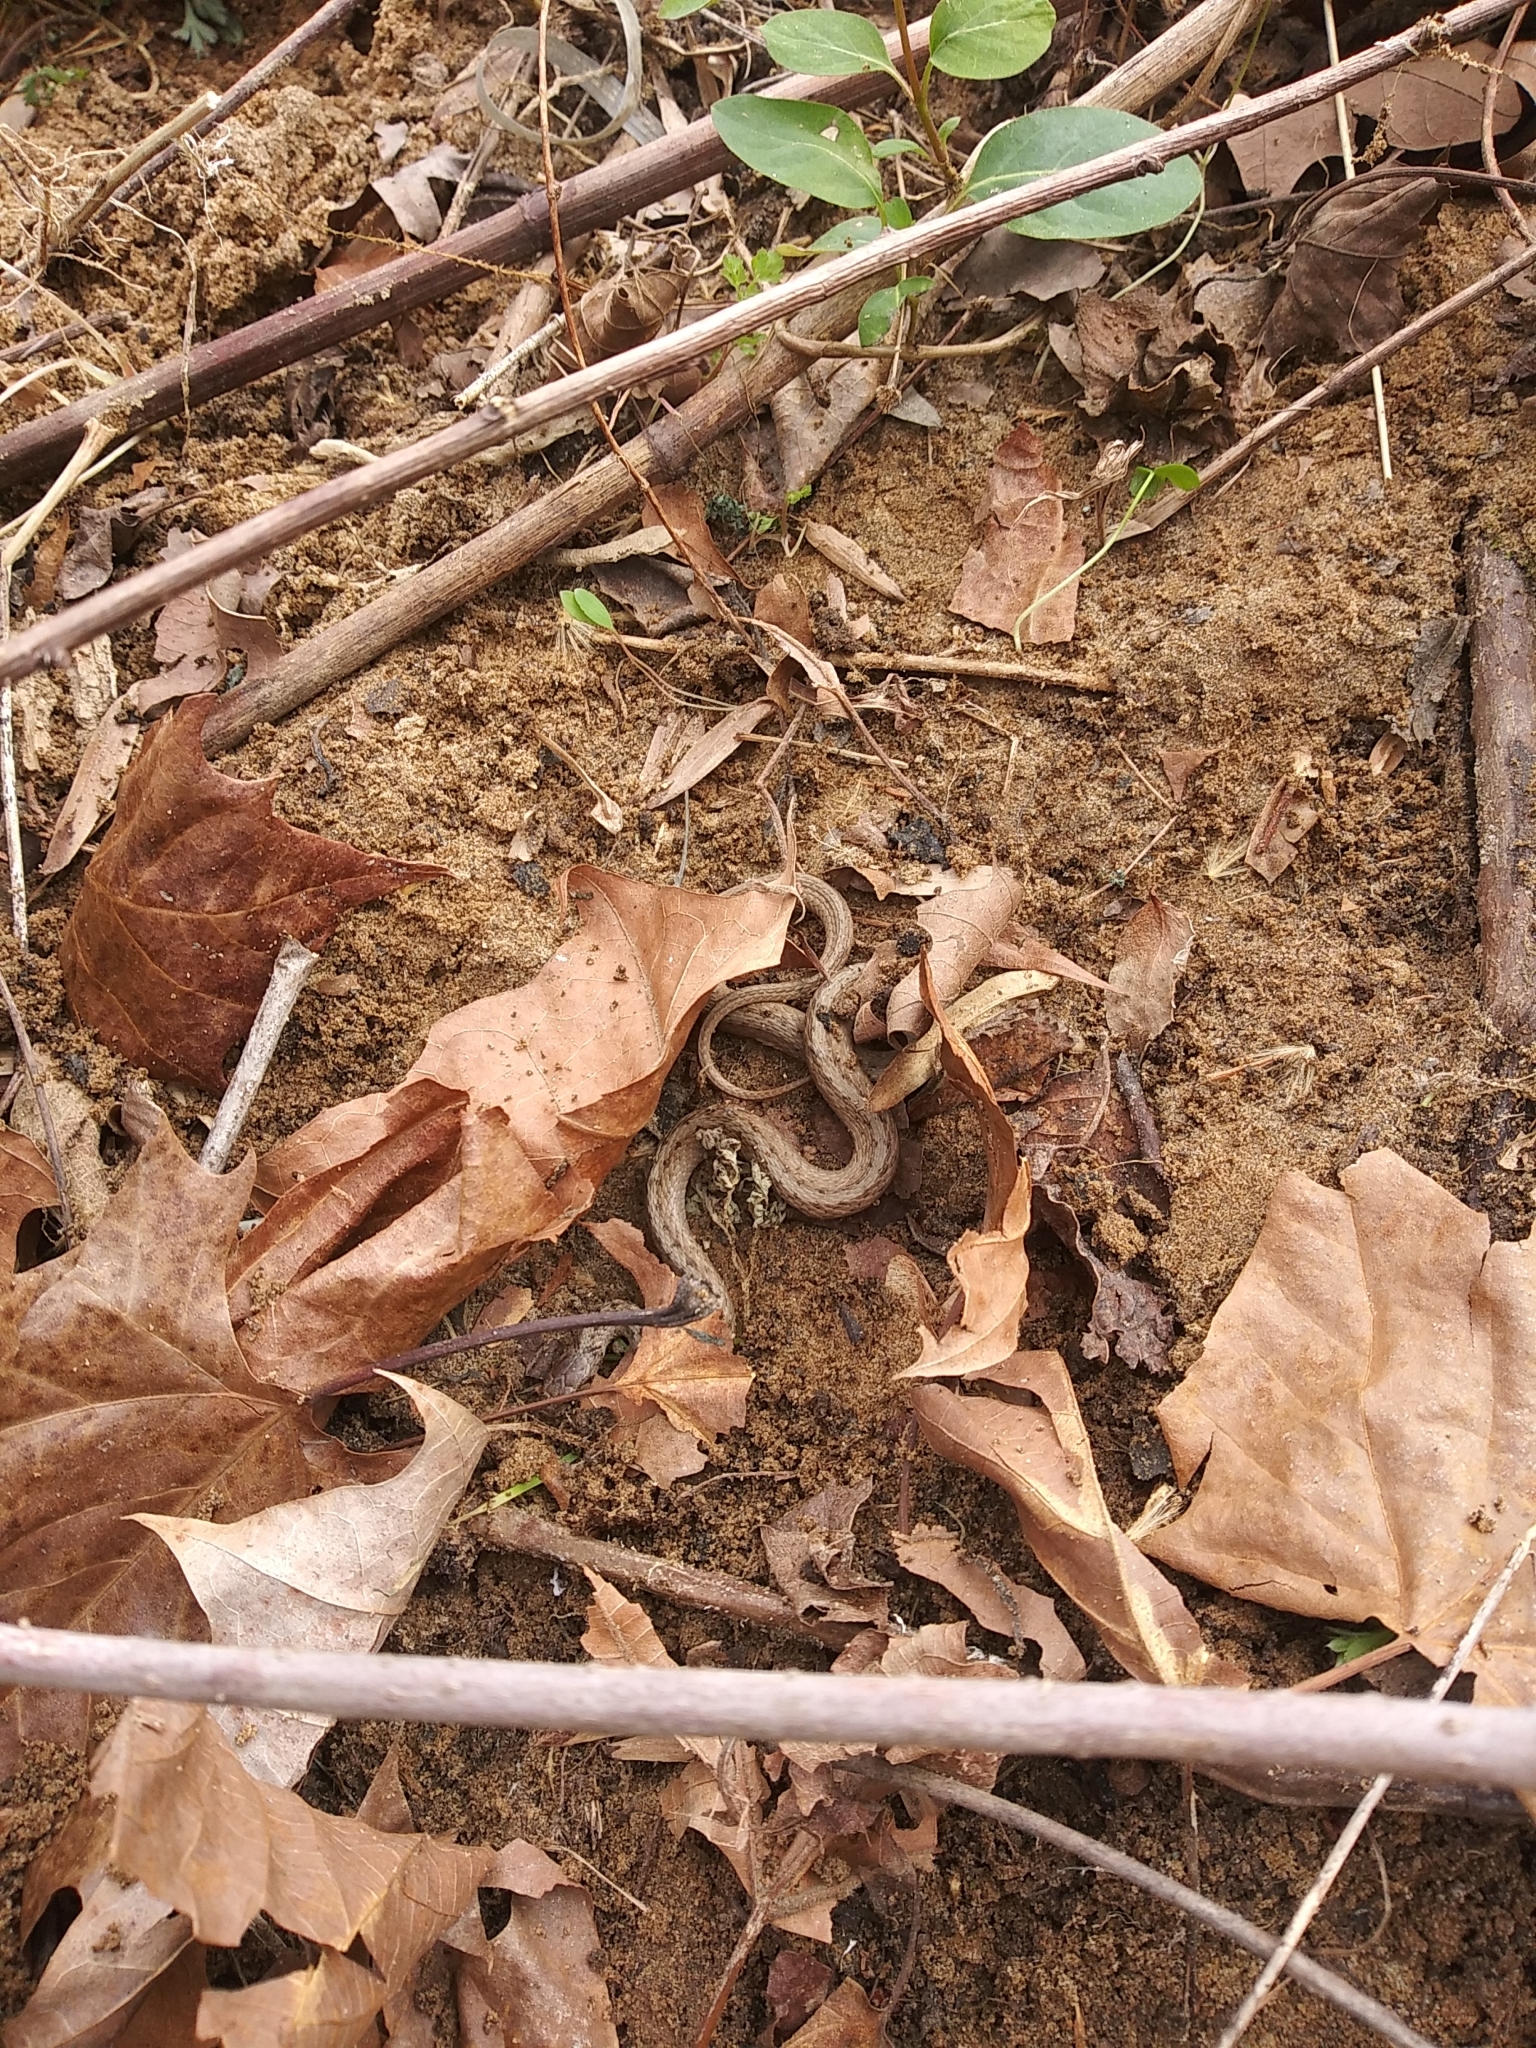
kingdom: Animalia
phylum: Chordata
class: Squamata
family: Colubridae
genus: Storeria
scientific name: Storeria dekayi
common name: (dekay’s) brown snake
